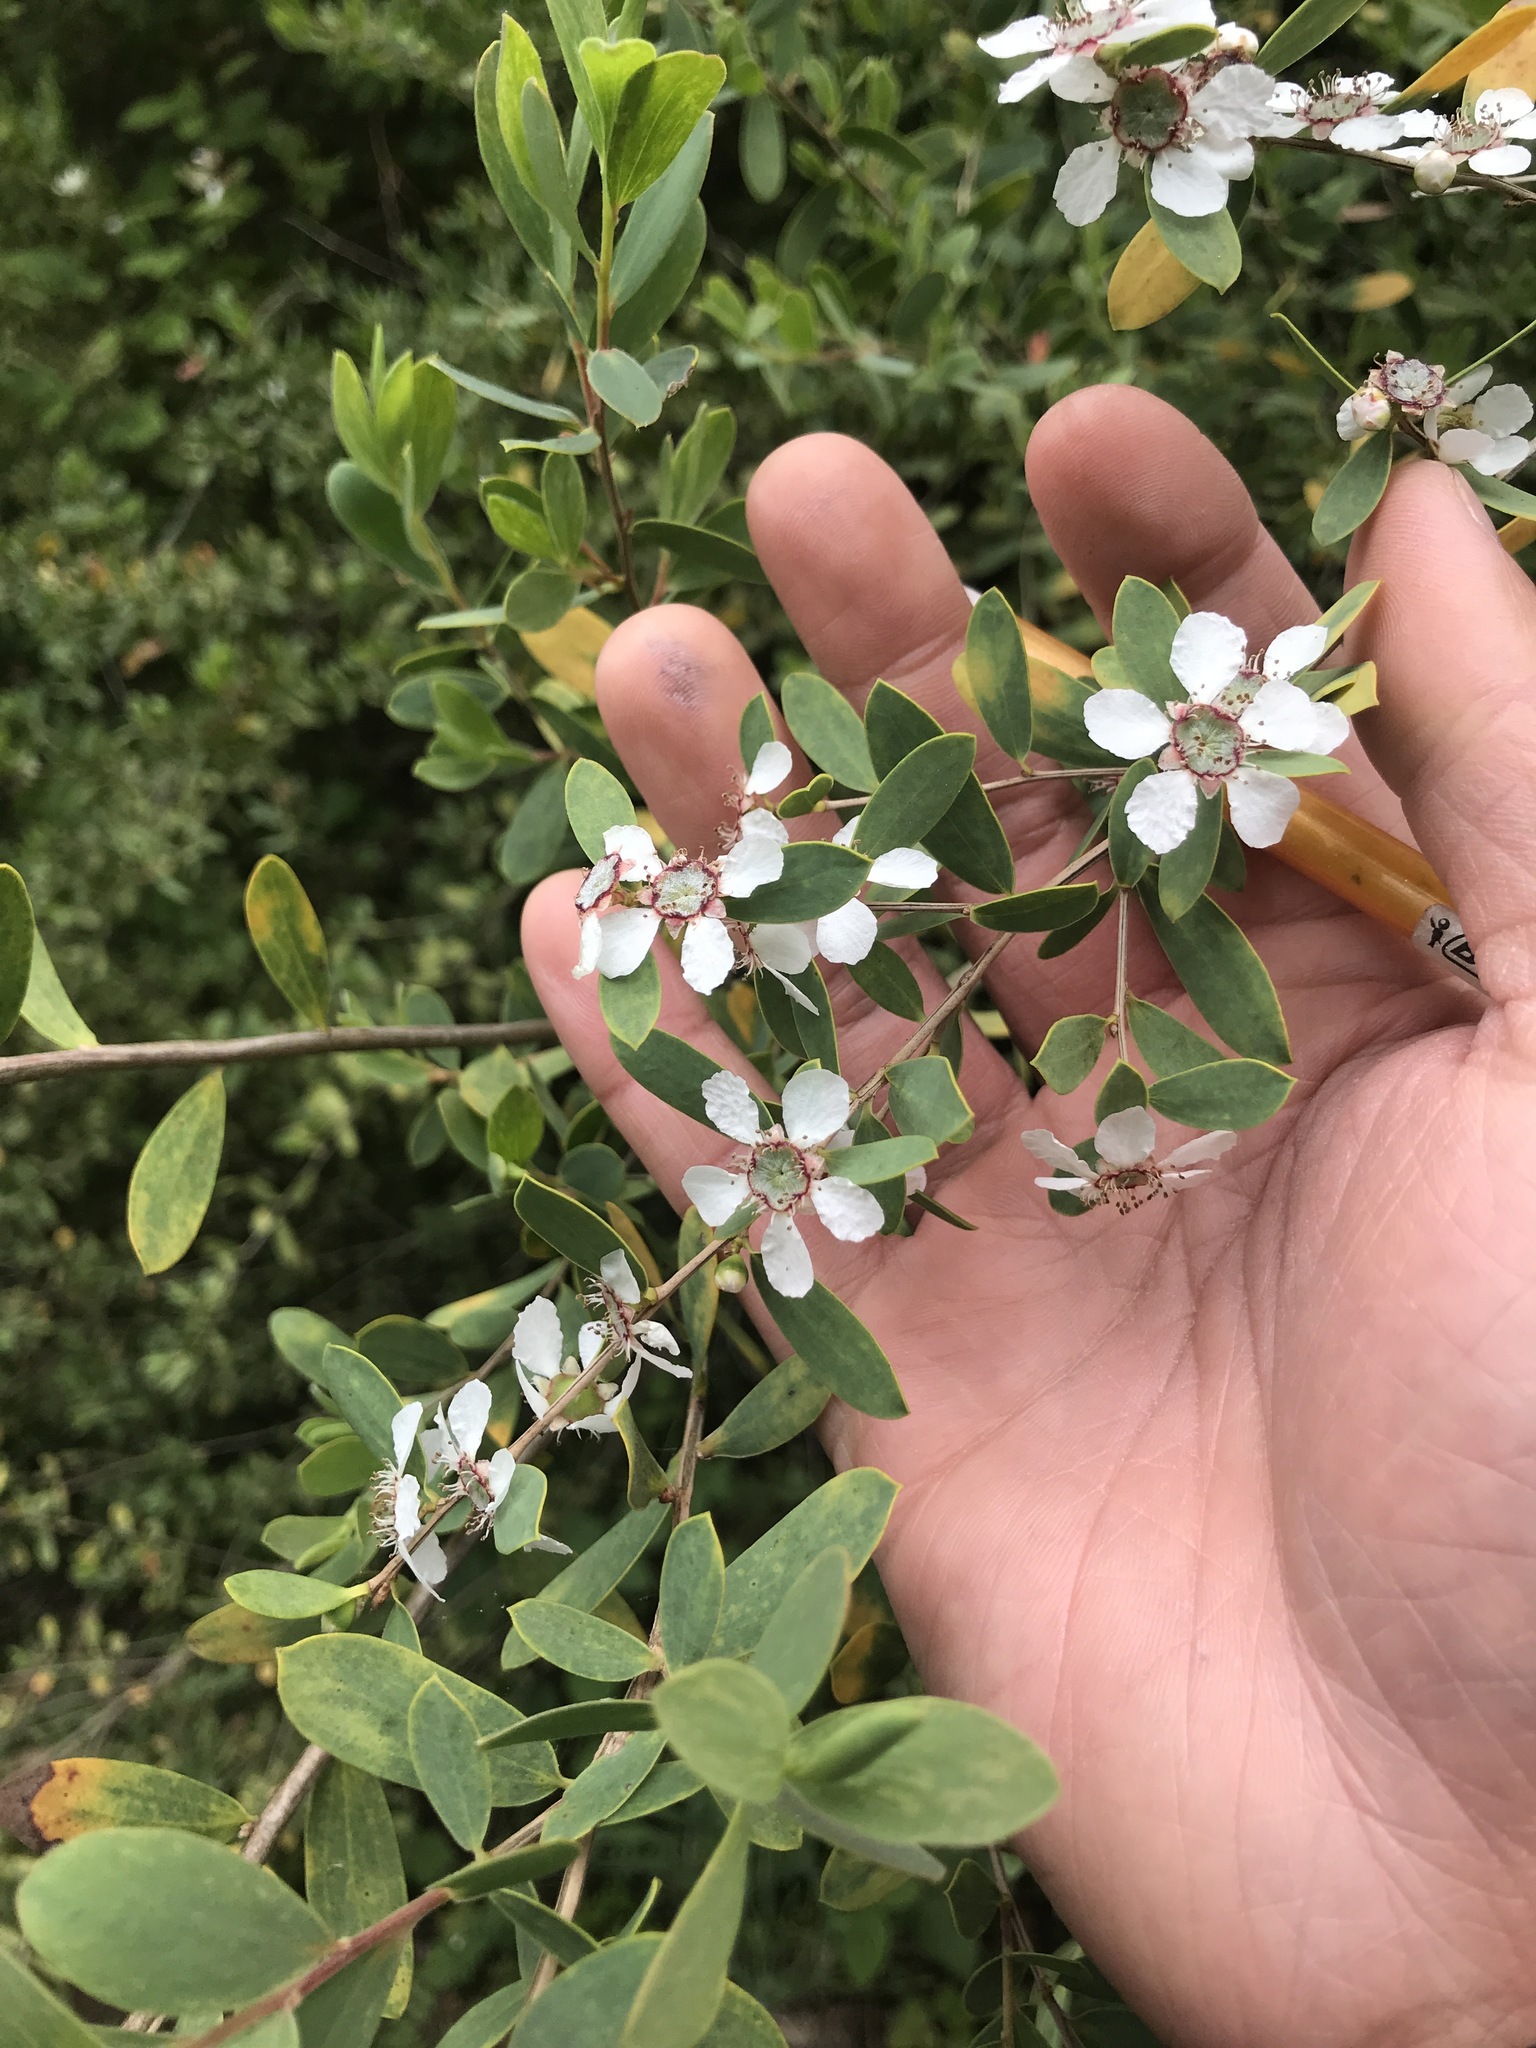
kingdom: Plantae
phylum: Tracheophyta
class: Magnoliopsida
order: Myrtales
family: Myrtaceae
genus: Leptospermum
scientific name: Leptospermum laevigatum
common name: Australian teatree
